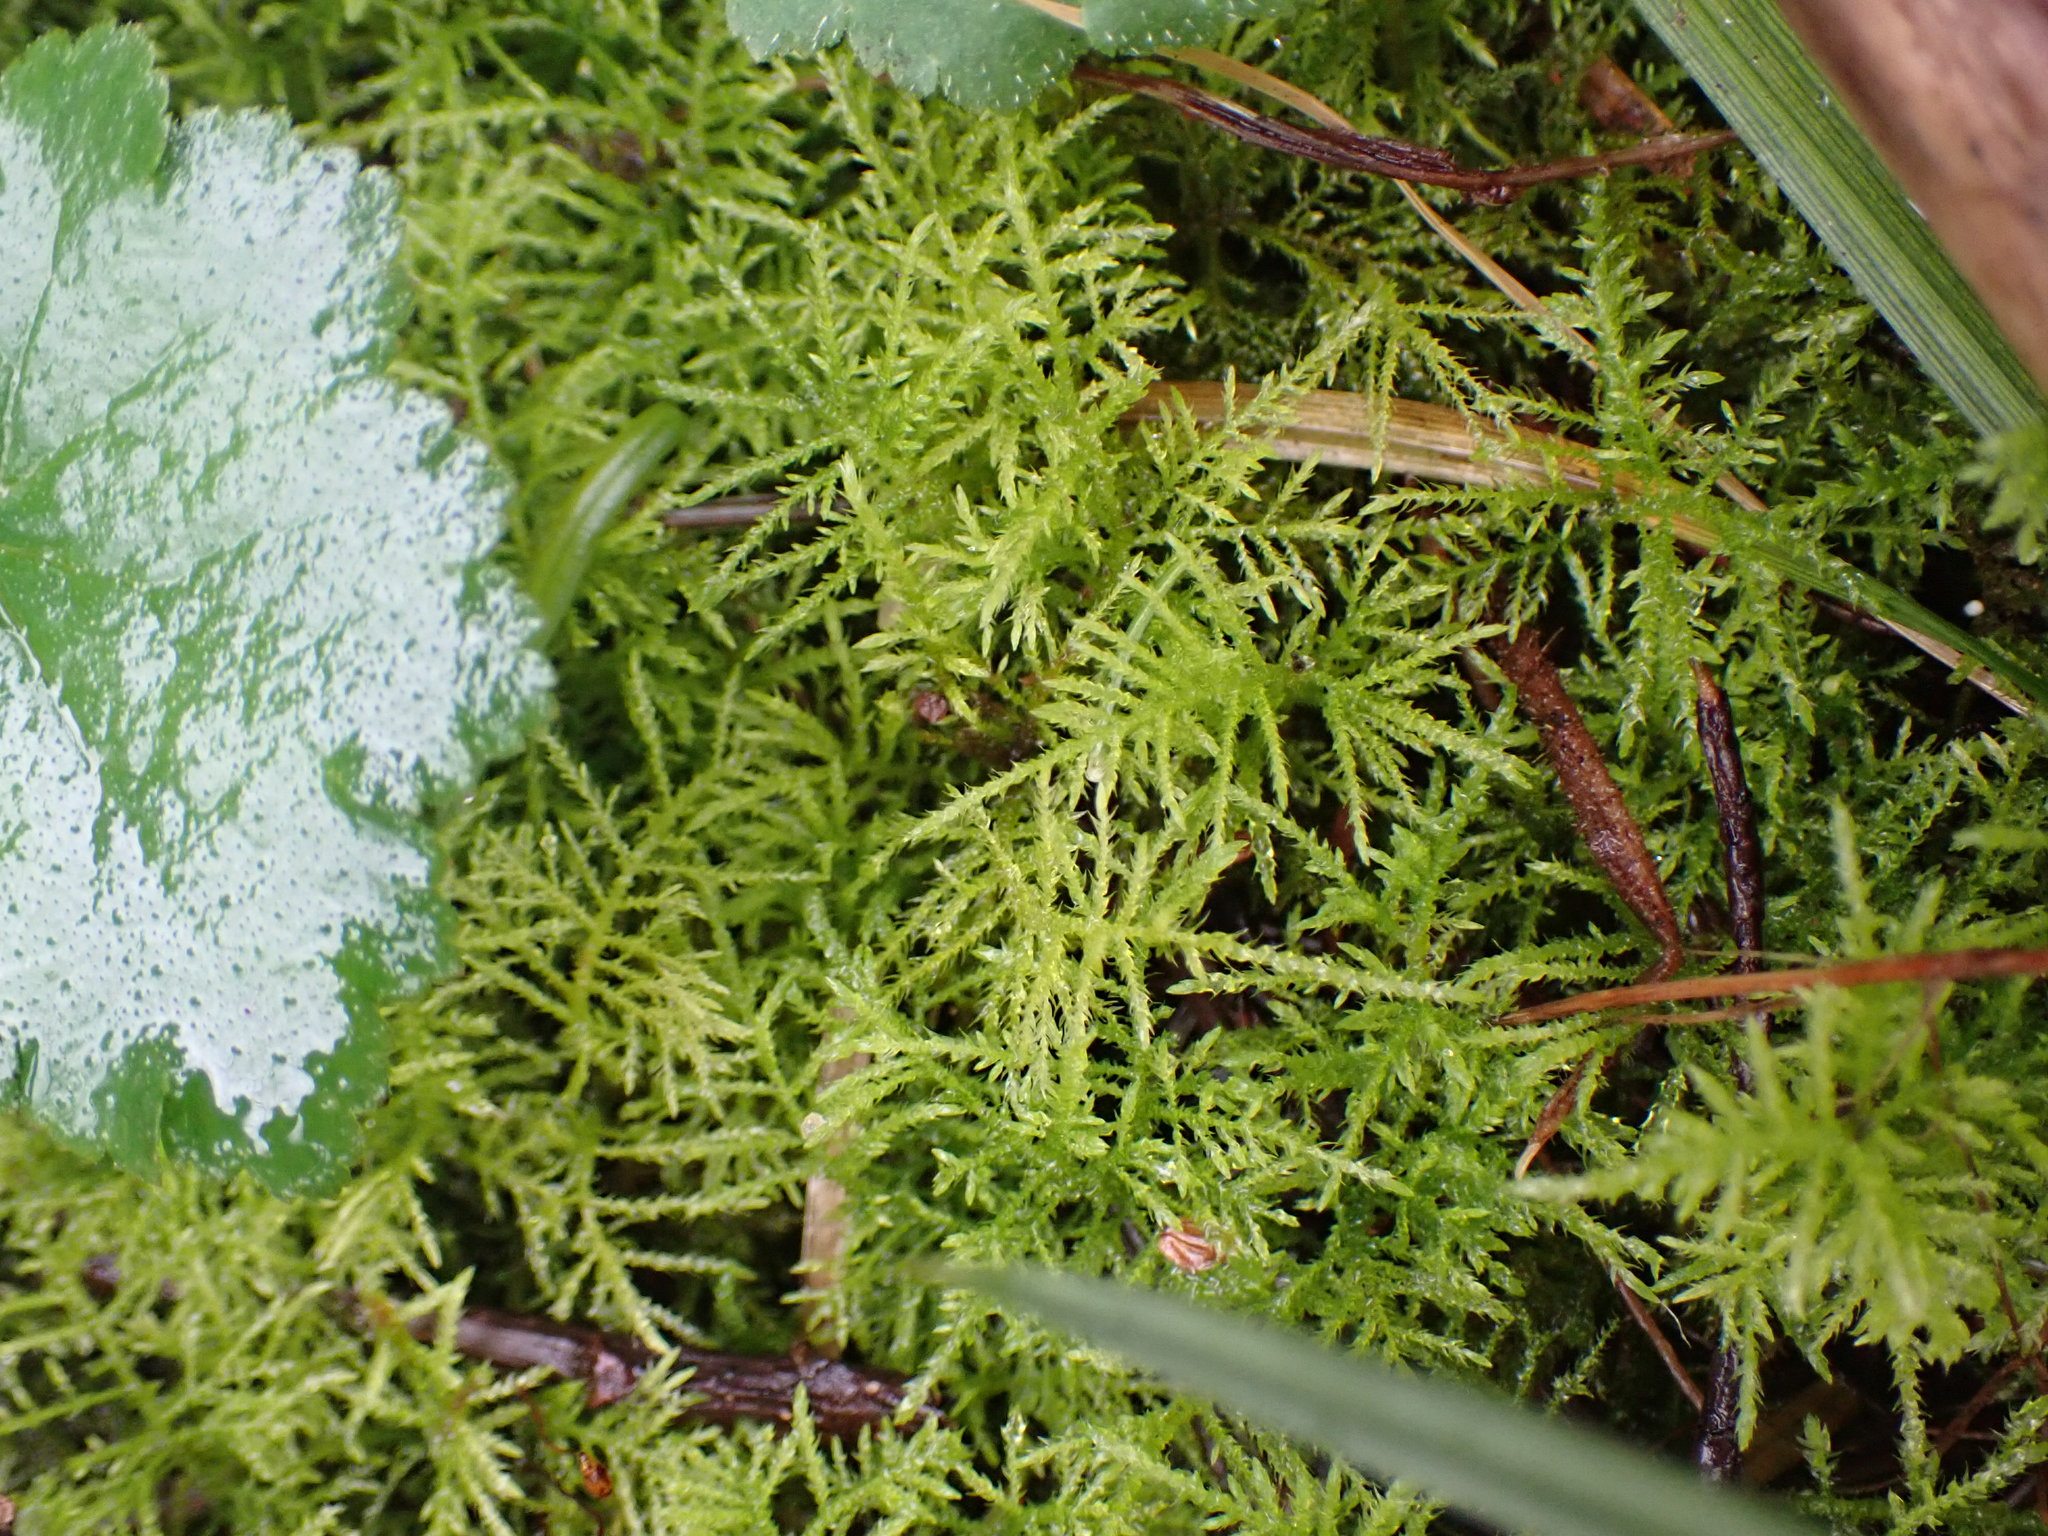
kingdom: Plantae
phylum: Bryophyta
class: Bryopsida
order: Hypnales
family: Brachytheciaceae
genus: Kindbergia
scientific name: Kindbergia praelonga
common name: Slender beaked moss
